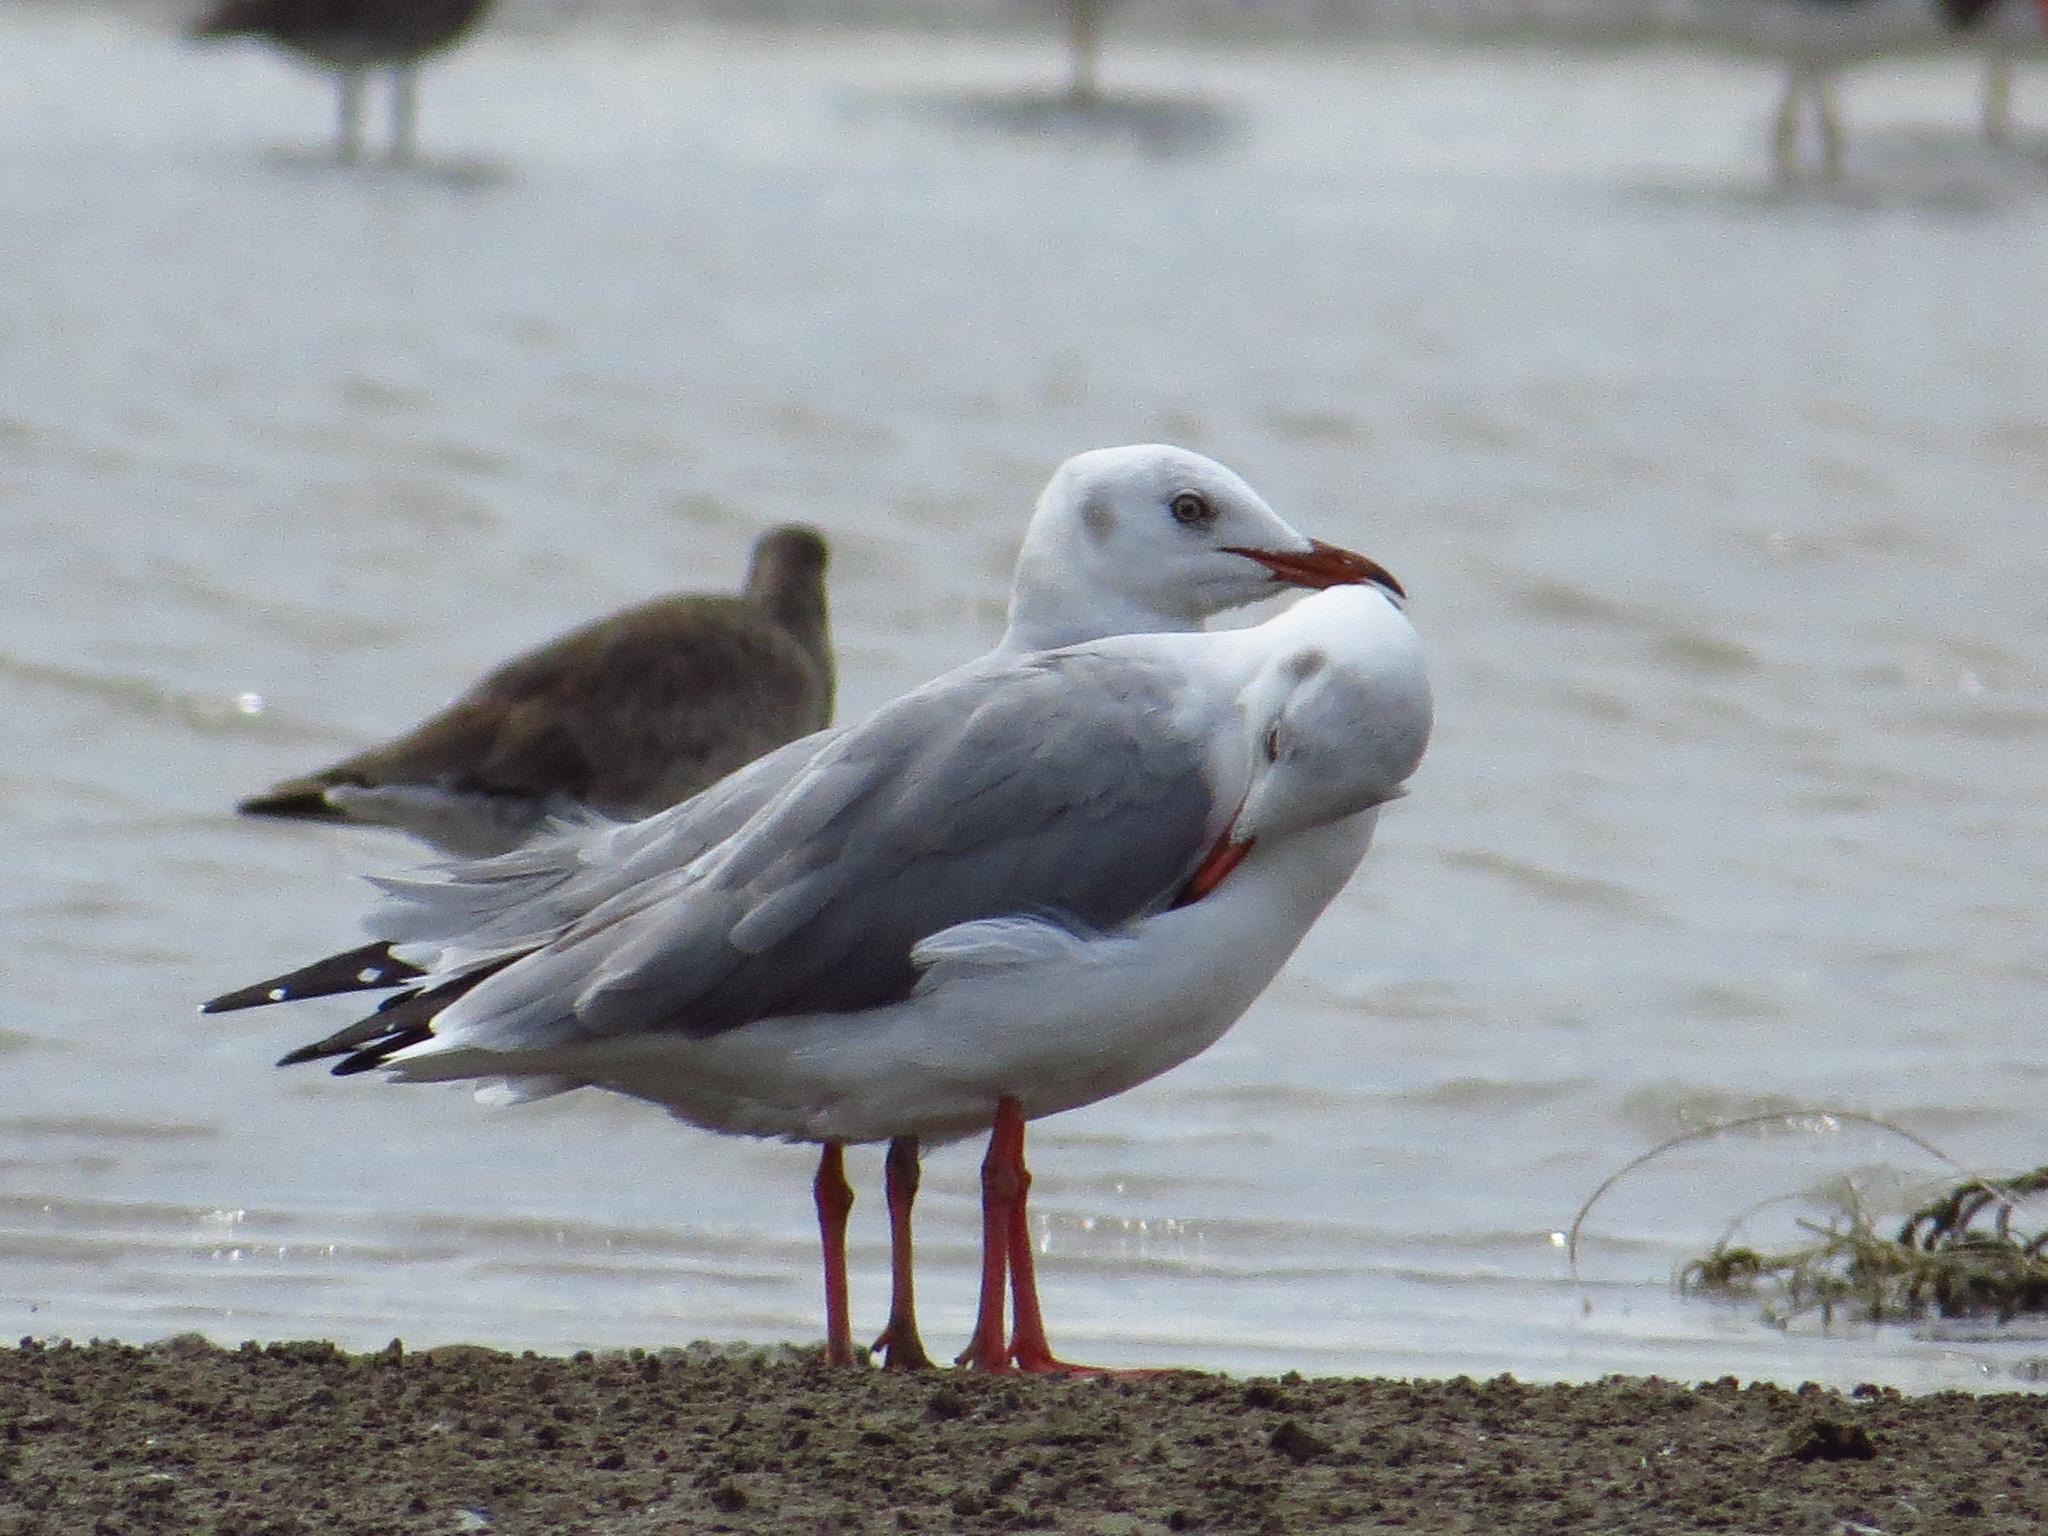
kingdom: Animalia
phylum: Chordata
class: Aves
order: Charadriiformes
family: Laridae
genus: Chroicocephalus
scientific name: Chroicocephalus cirrocephalus
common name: Grey-headed gull
